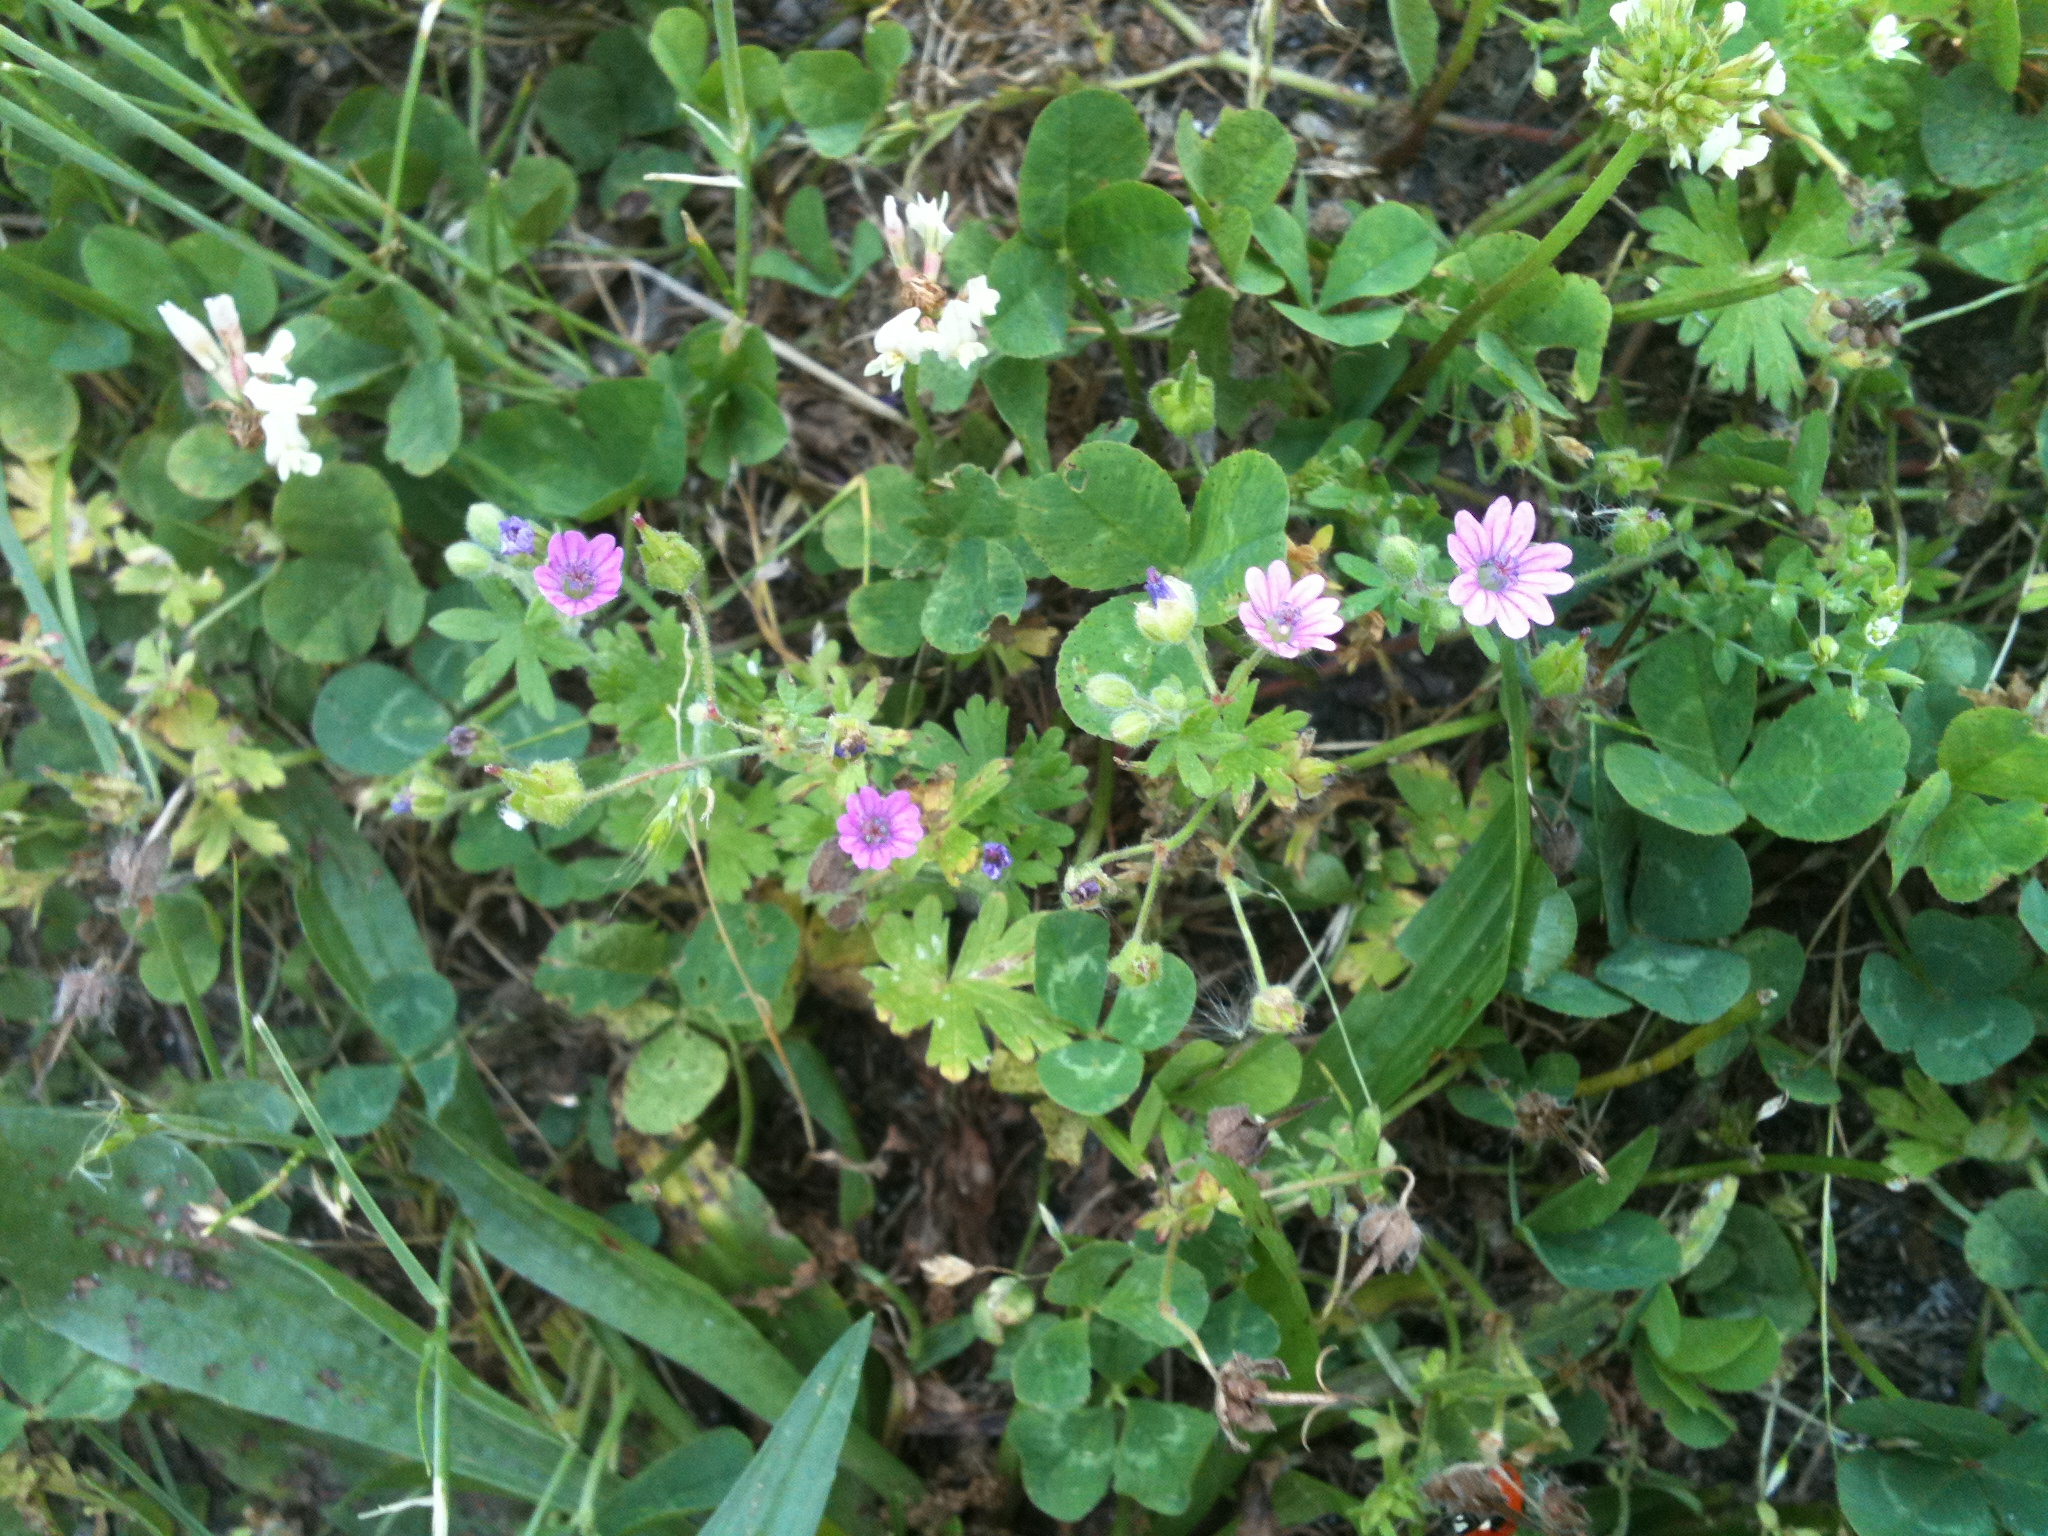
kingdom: Plantae
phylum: Tracheophyta
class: Magnoliopsida
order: Geraniales
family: Geraniaceae
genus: Geranium
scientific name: Geranium molle
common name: Dove's-foot crane's-bill
